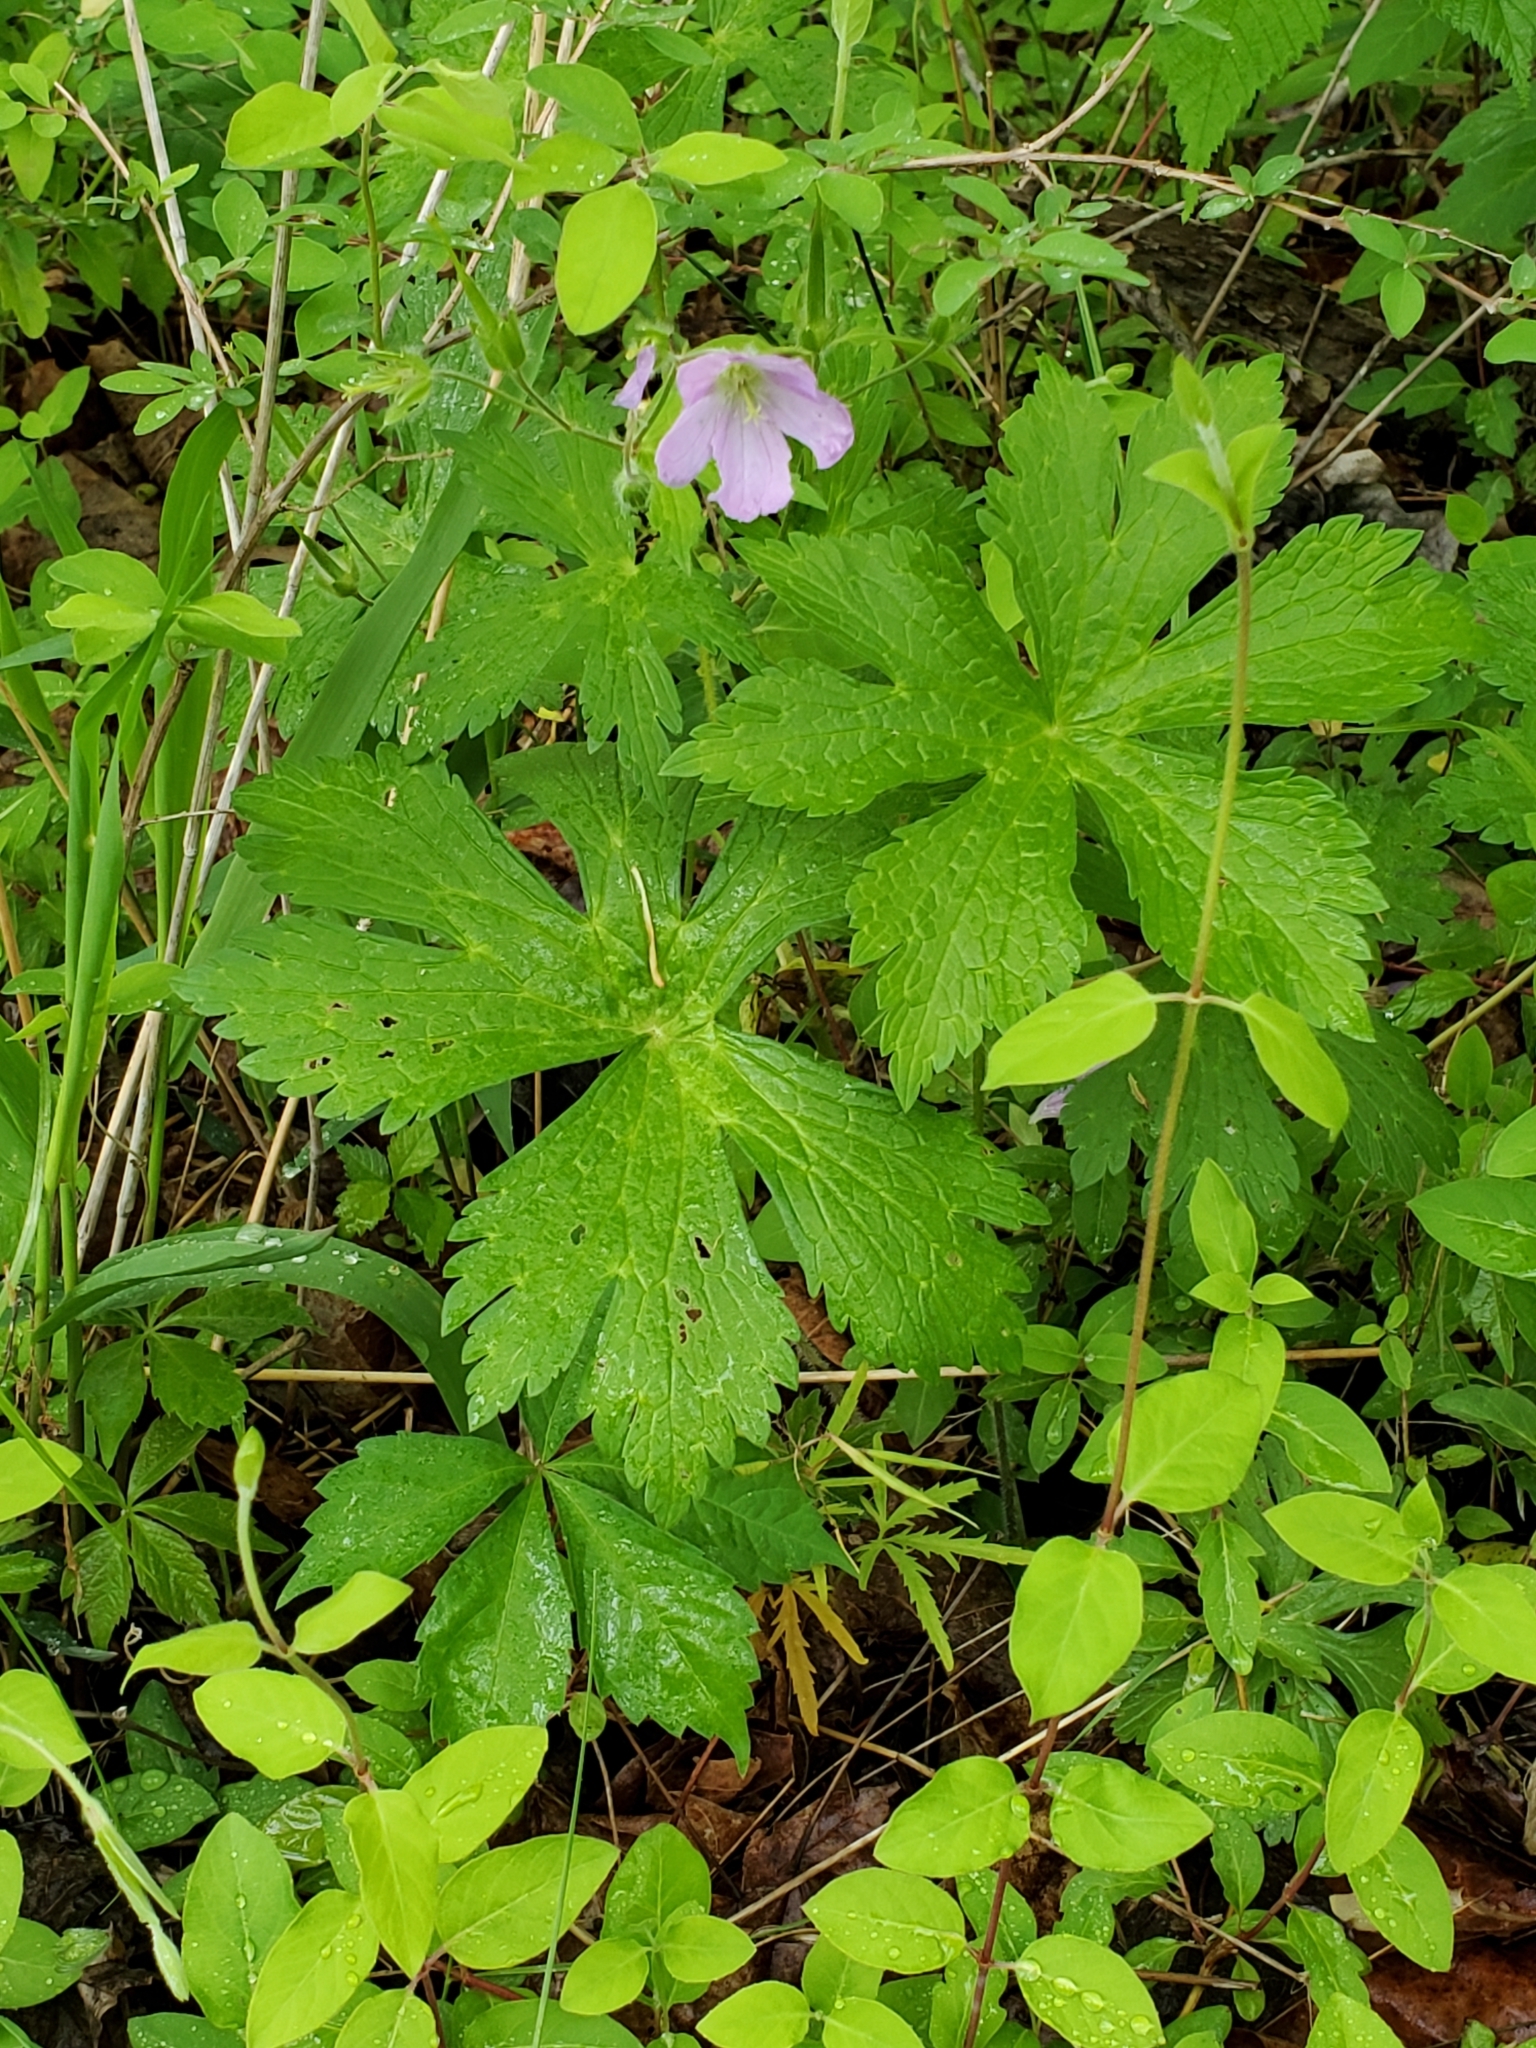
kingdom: Plantae
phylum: Tracheophyta
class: Magnoliopsida
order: Geraniales
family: Geraniaceae
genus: Geranium
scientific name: Geranium maculatum
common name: Spotted geranium
